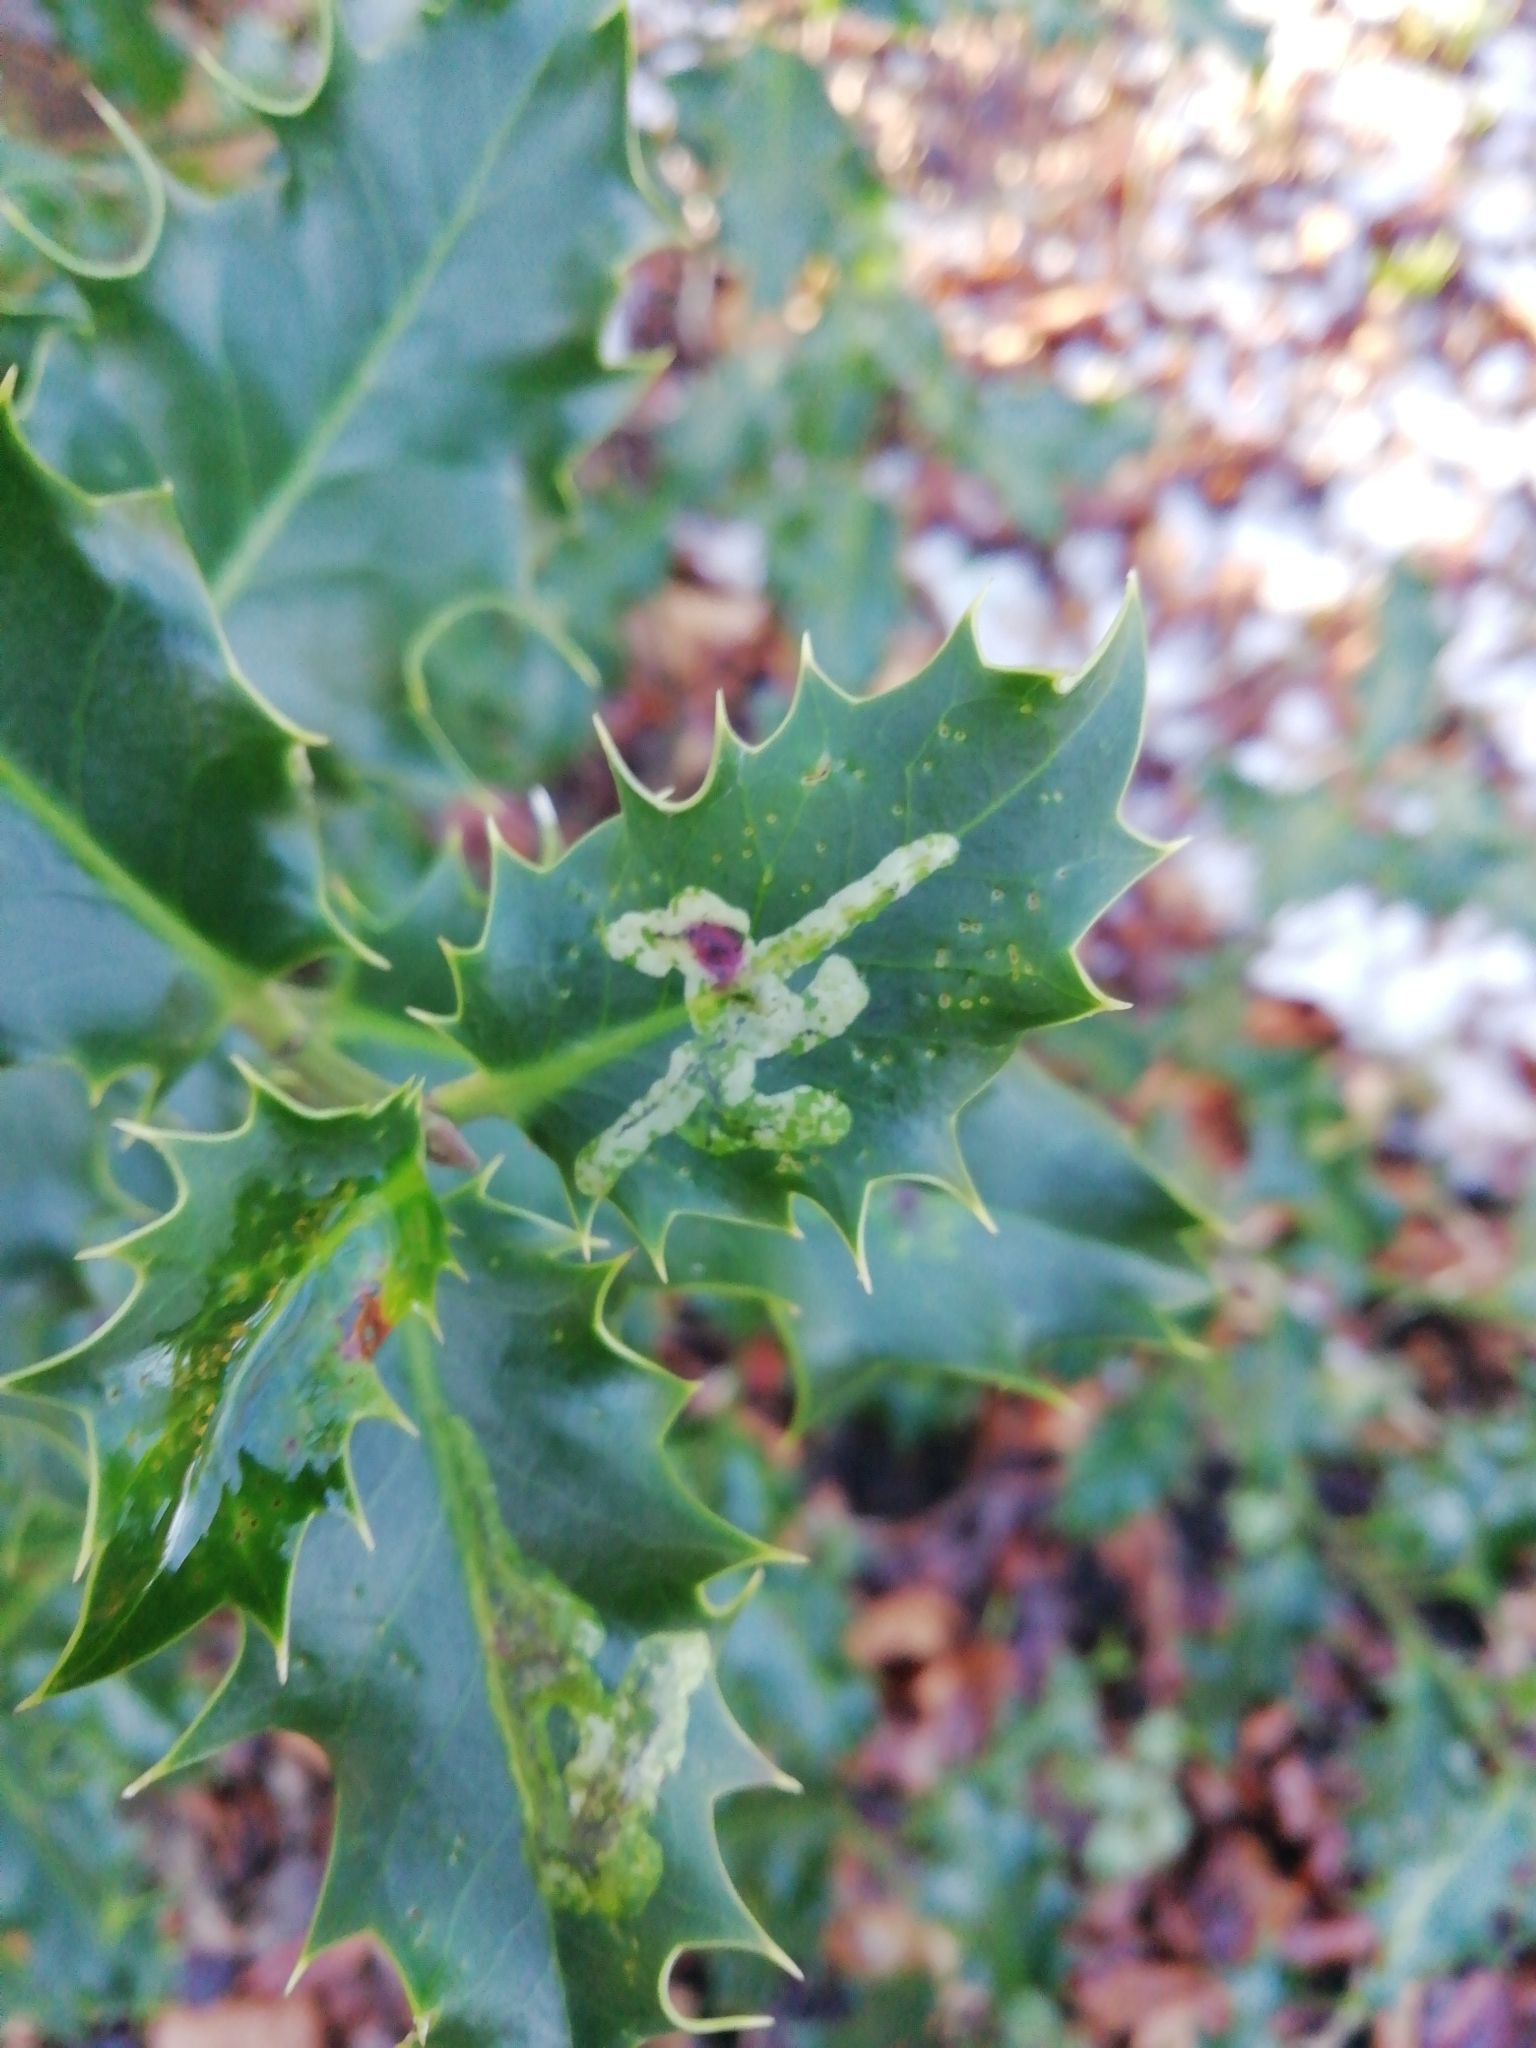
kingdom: Animalia
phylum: Arthropoda
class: Insecta
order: Diptera
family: Agromyzidae
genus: Phytomyza
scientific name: Phytomyza ilicis
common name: Holly leafminer
